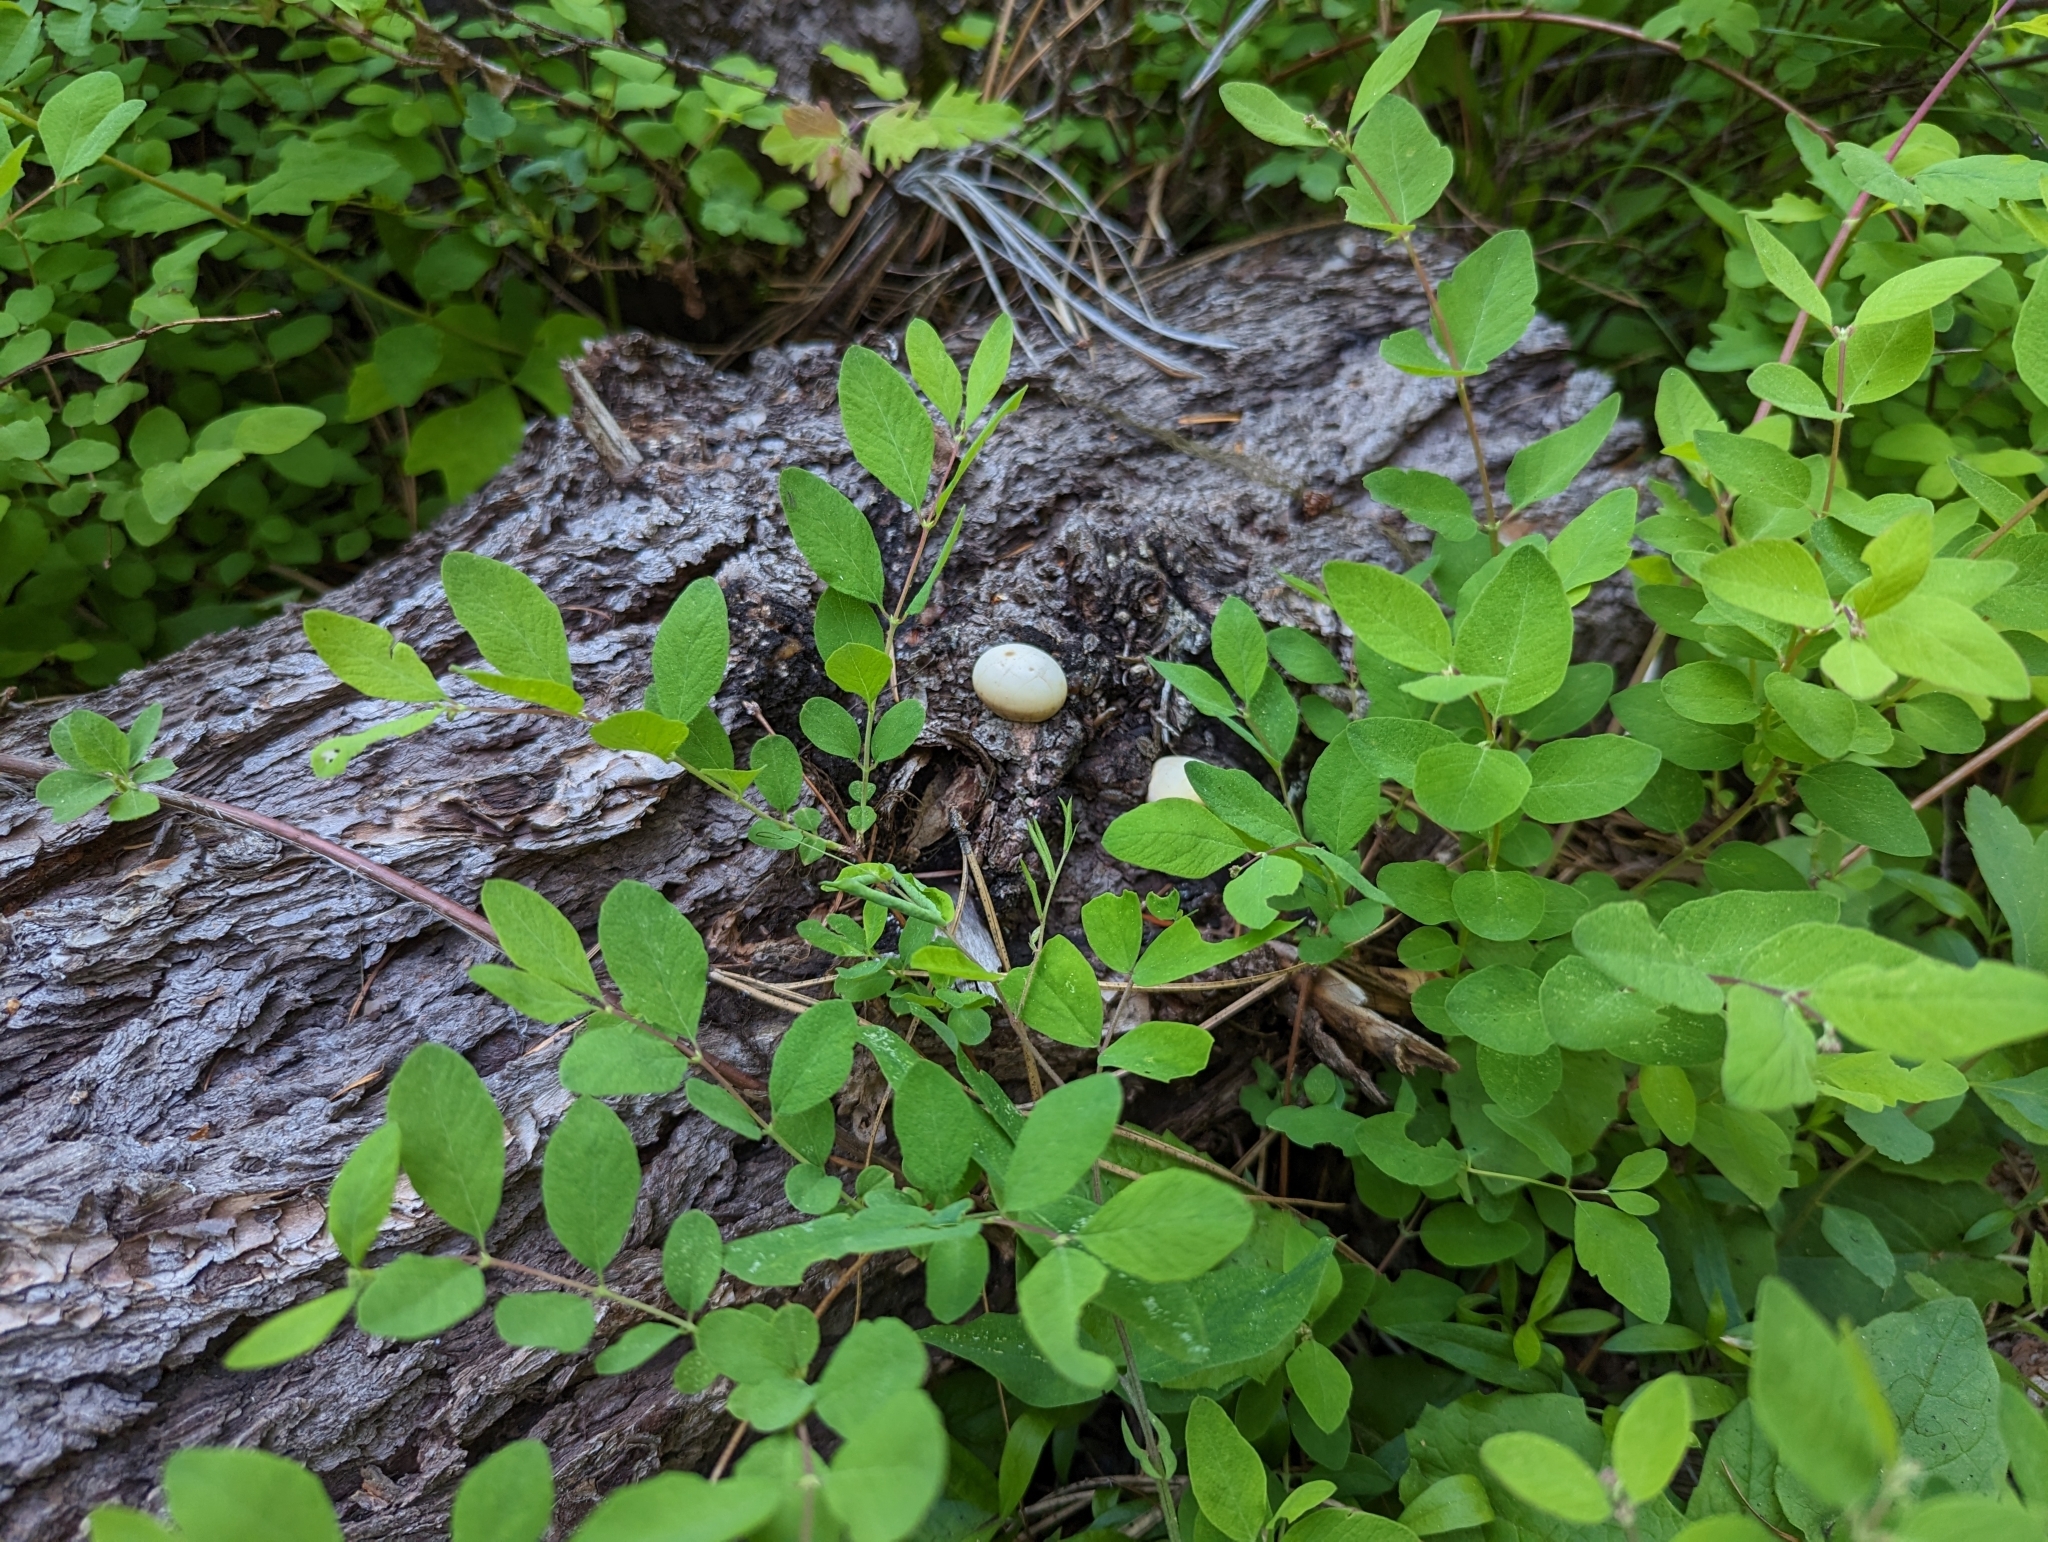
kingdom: Fungi
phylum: Basidiomycota
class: Agaricomycetes
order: Polyporales
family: Polyporaceae
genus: Cryptoporus
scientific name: Cryptoporus volvatus
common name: Veiled polypore
